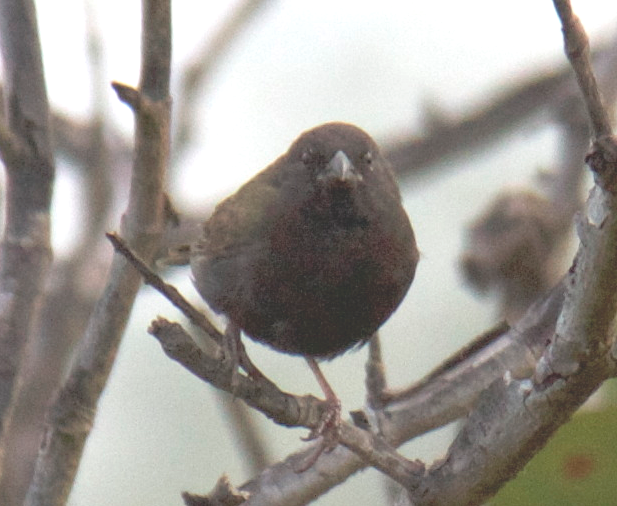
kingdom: Animalia
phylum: Chordata
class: Aves
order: Passeriformes
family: Thraupidae
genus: Melanospiza
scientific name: Melanospiza bicolor
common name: Black-faced grassquit
